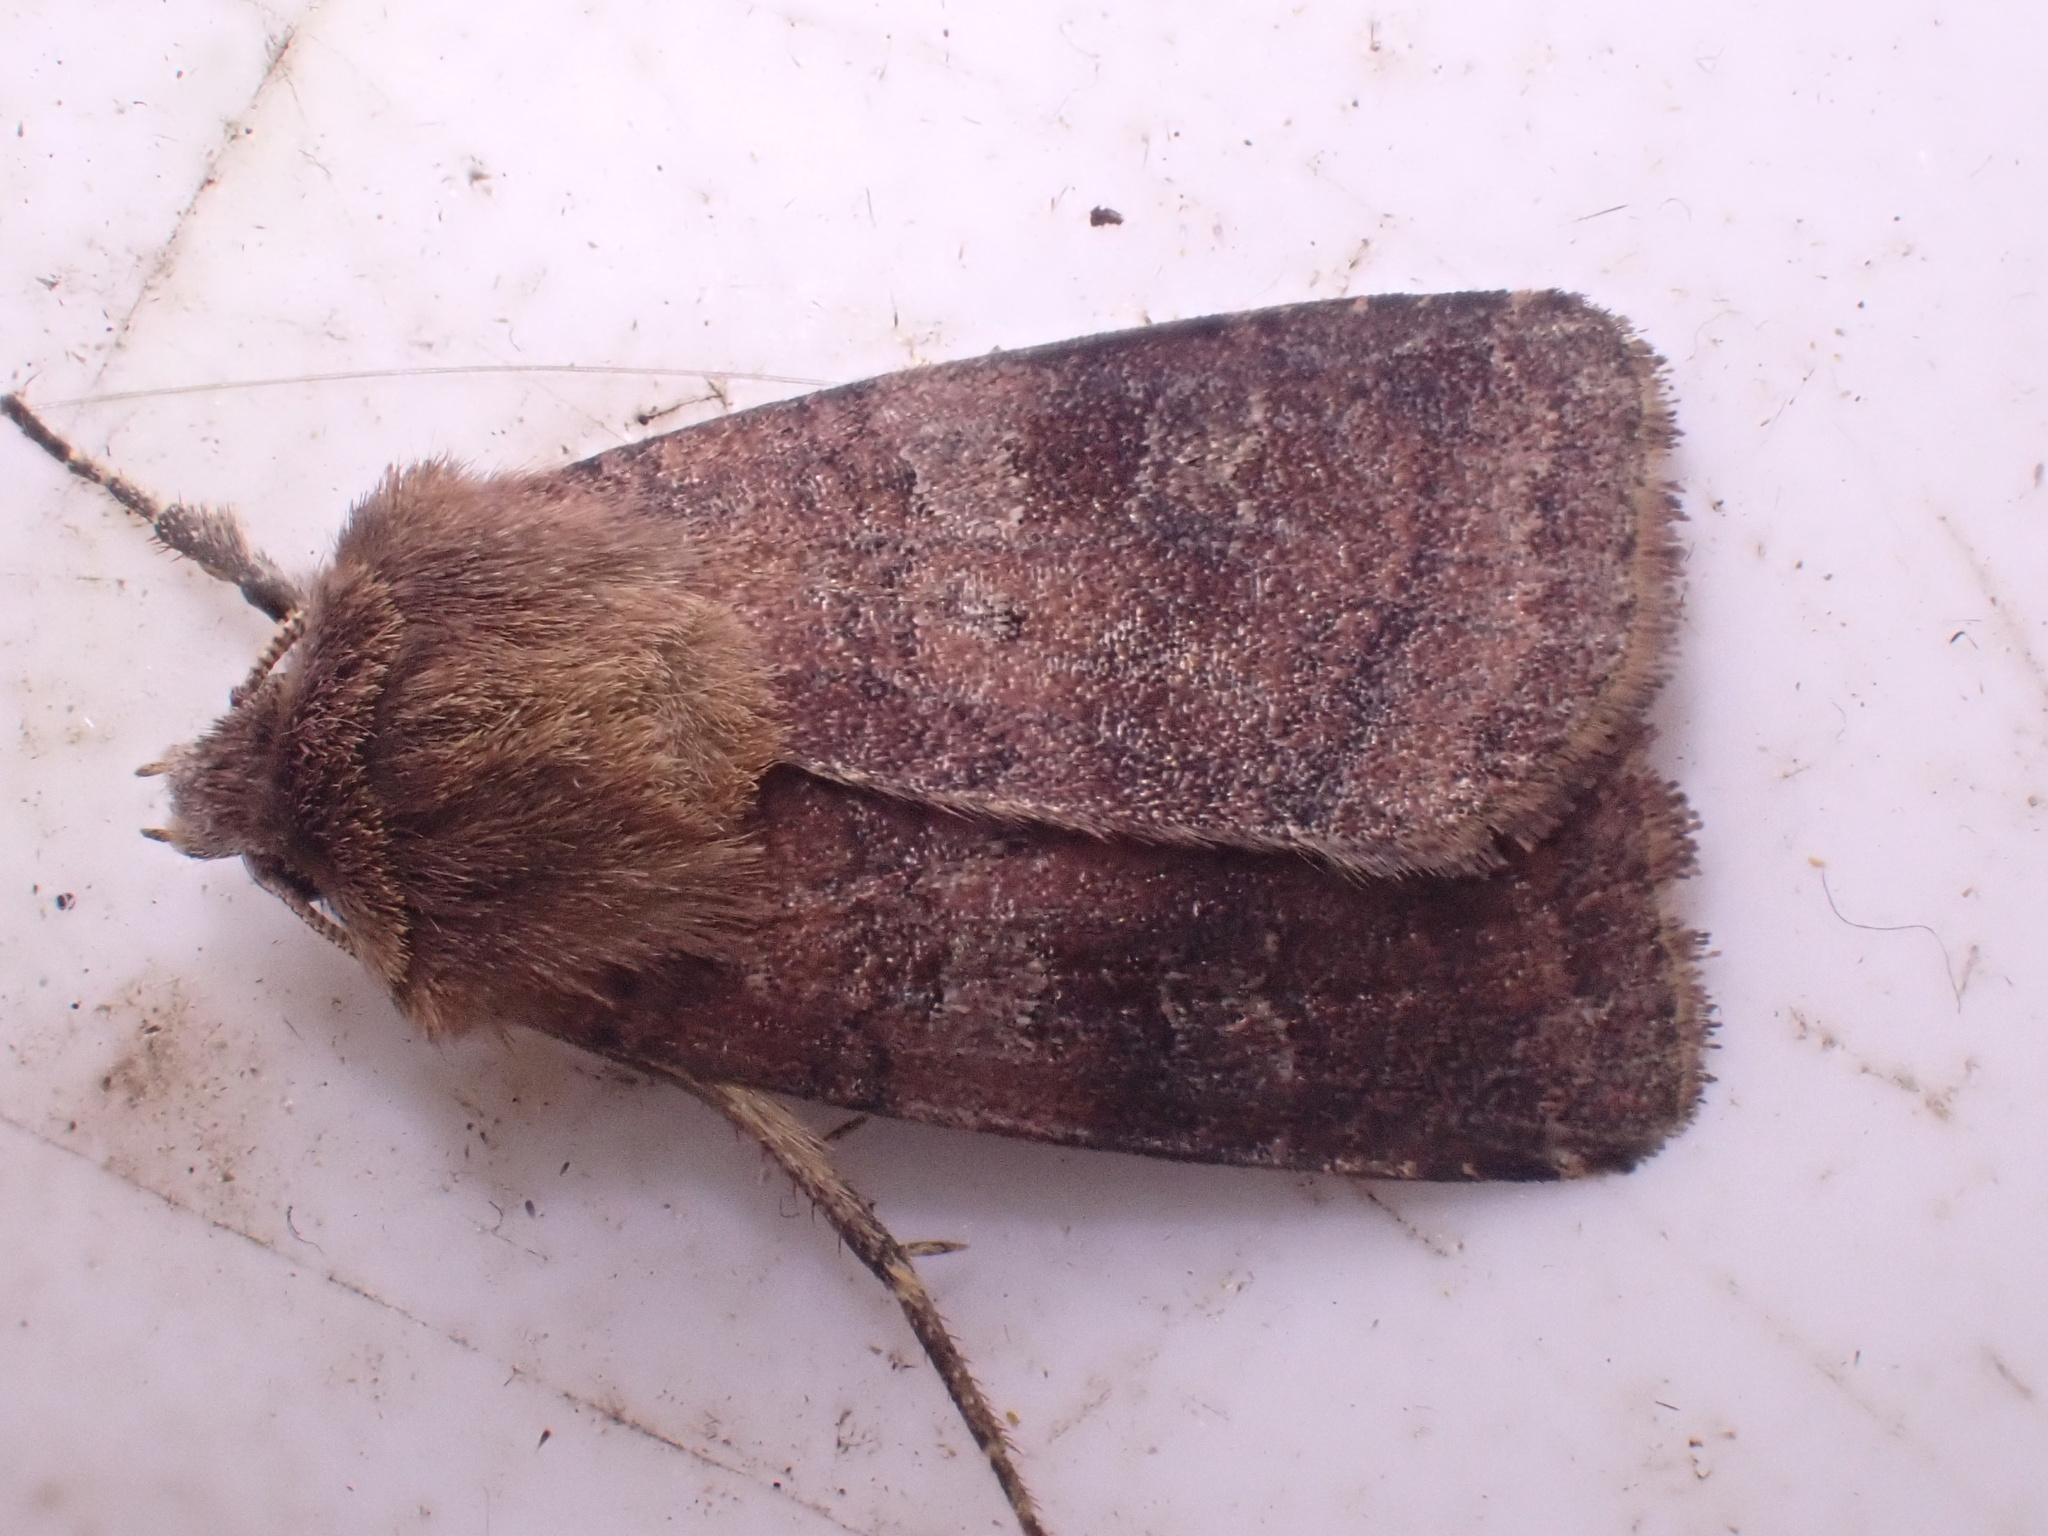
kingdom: Animalia
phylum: Arthropoda
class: Insecta
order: Lepidoptera
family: Noctuidae
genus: Diarsia
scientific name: Diarsia rubi
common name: Small square-spot
